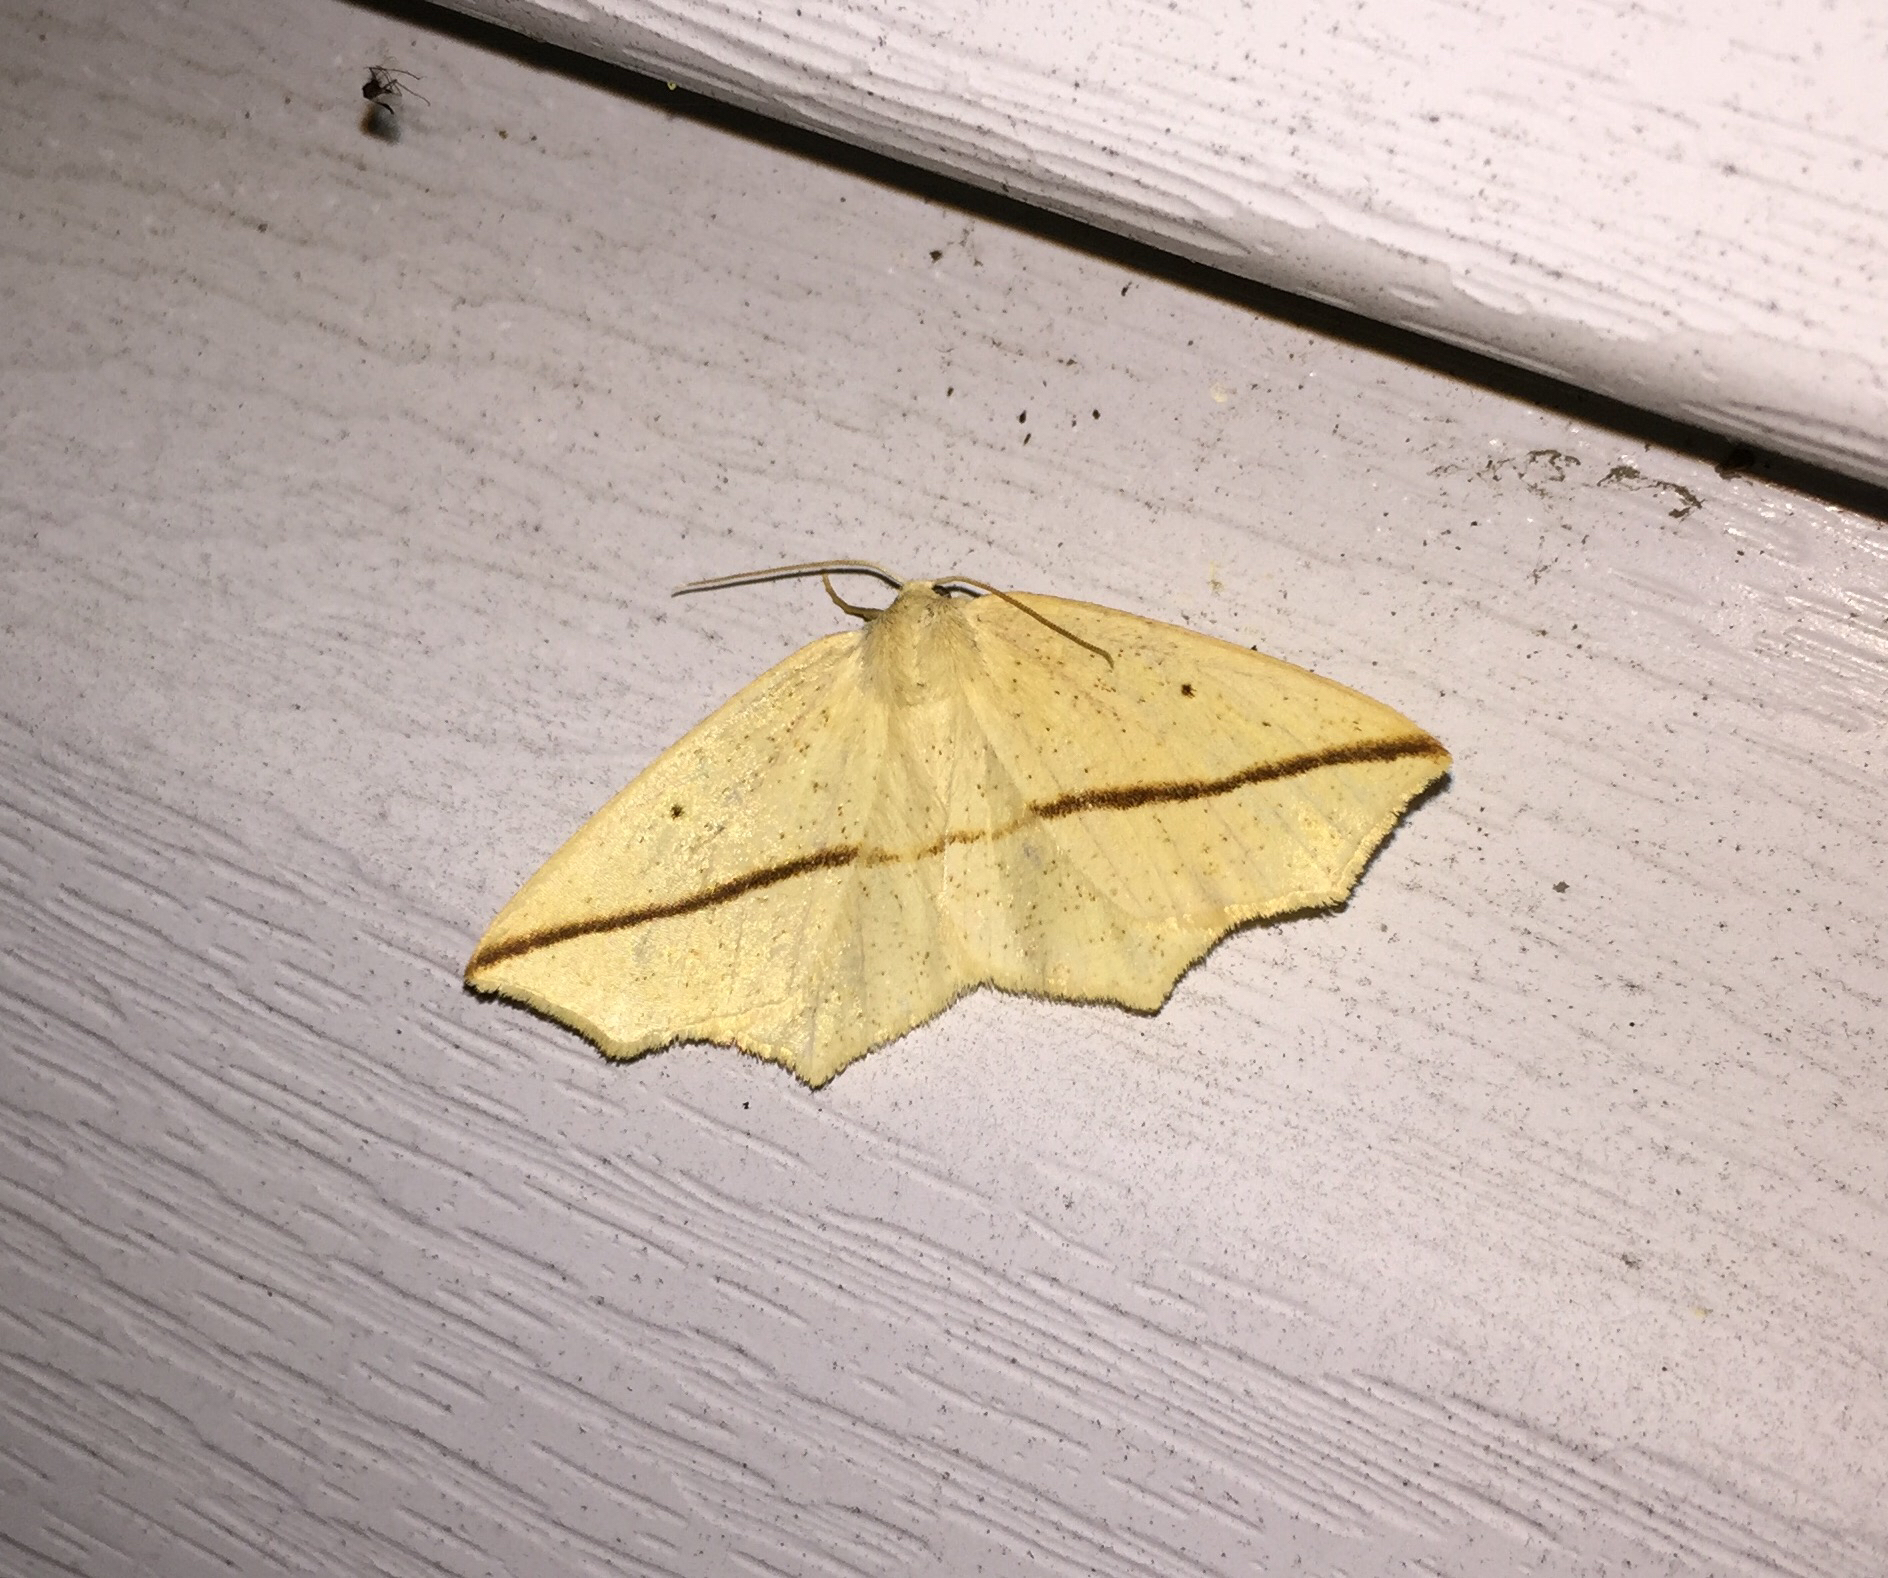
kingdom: Animalia
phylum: Arthropoda
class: Insecta
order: Lepidoptera
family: Geometridae
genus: Tetracis
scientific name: Tetracis crocallata
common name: Yellow slant-line
